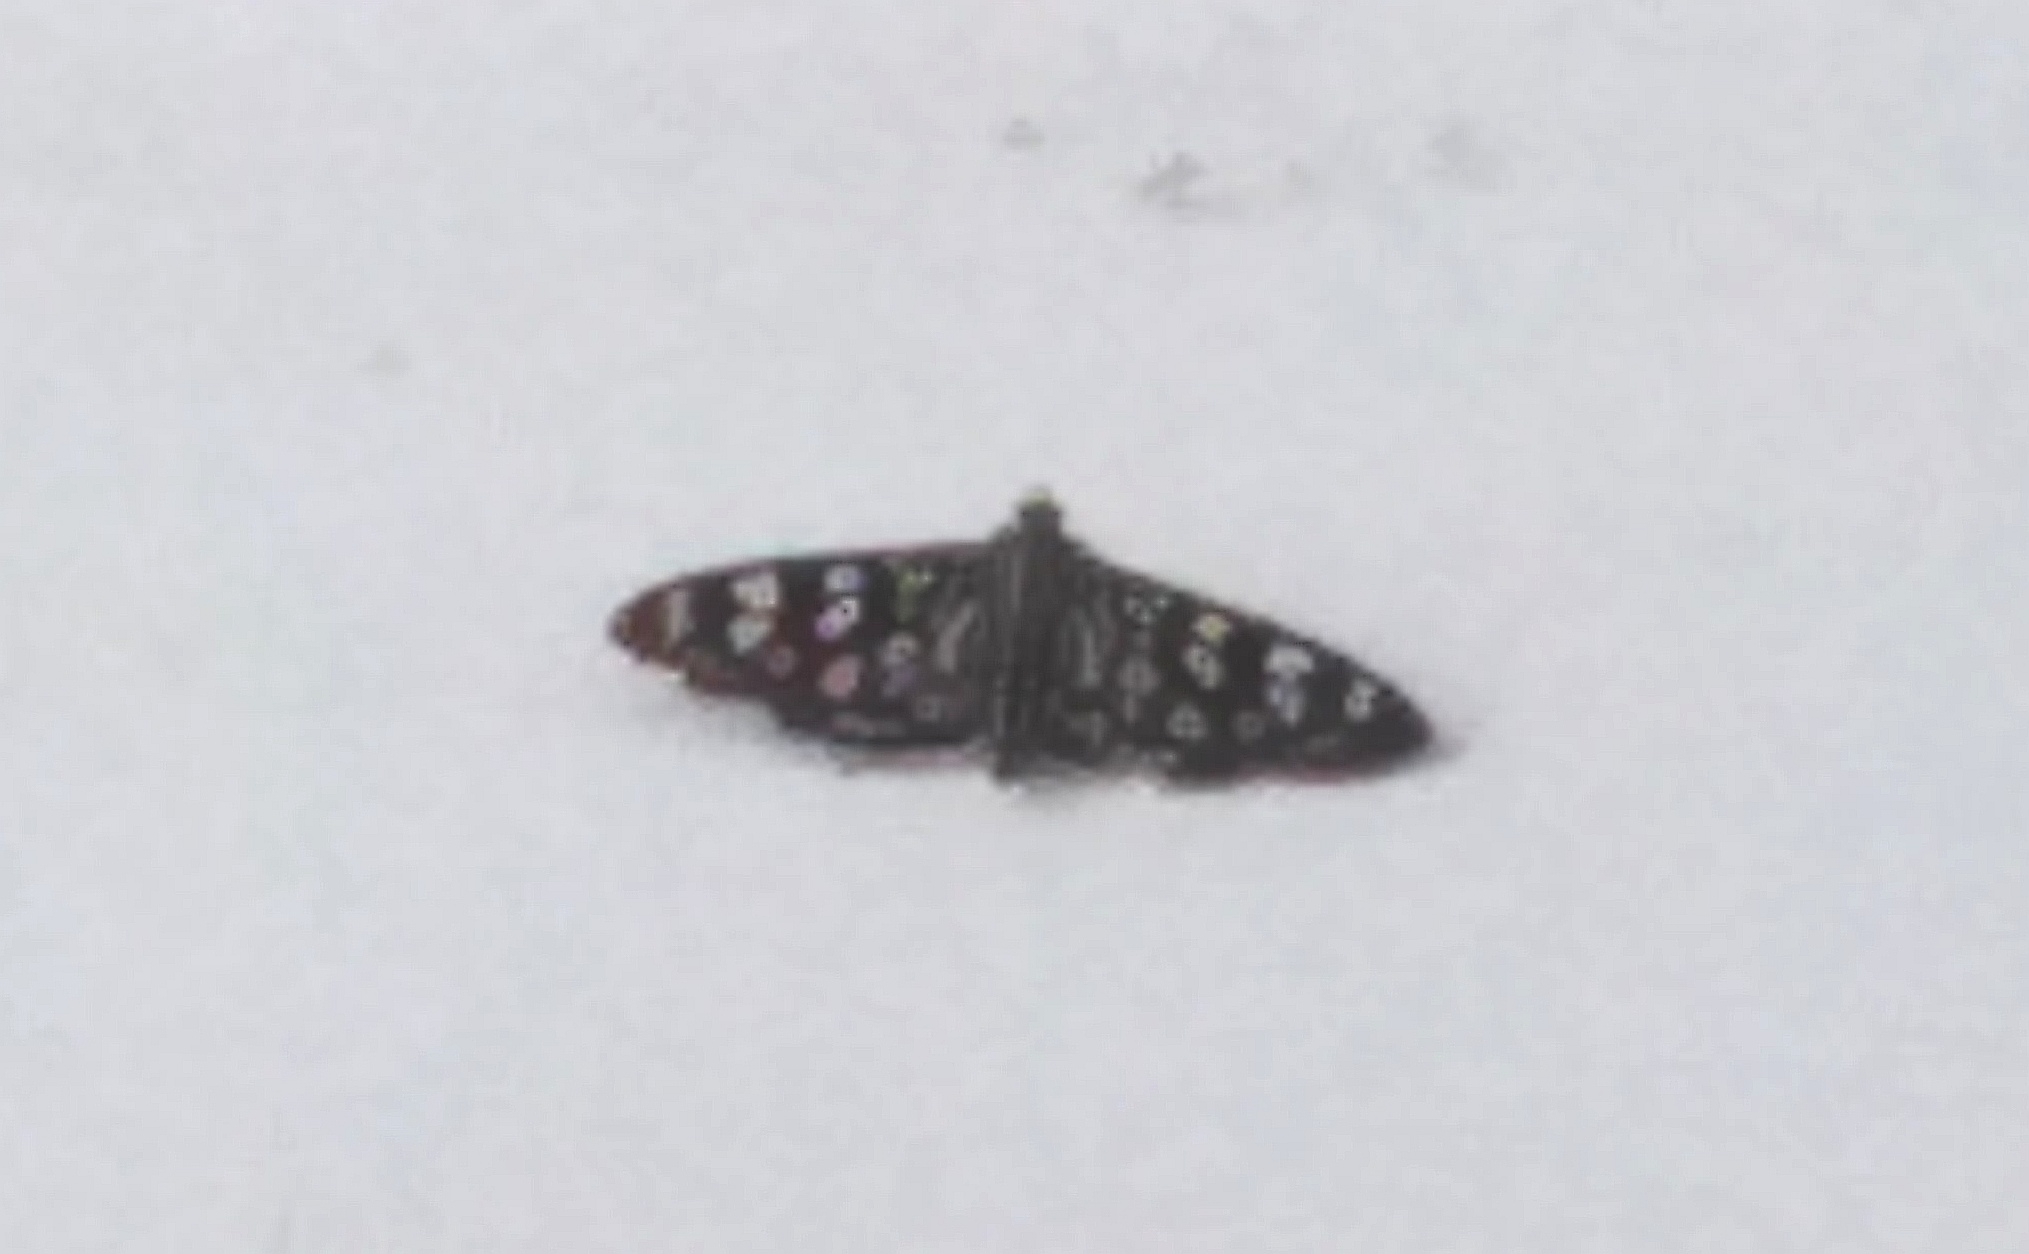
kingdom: Animalia
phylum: Arthropoda
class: Insecta
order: Lepidoptera
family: Crambidae
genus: Pygospila
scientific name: Pygospila tyres
